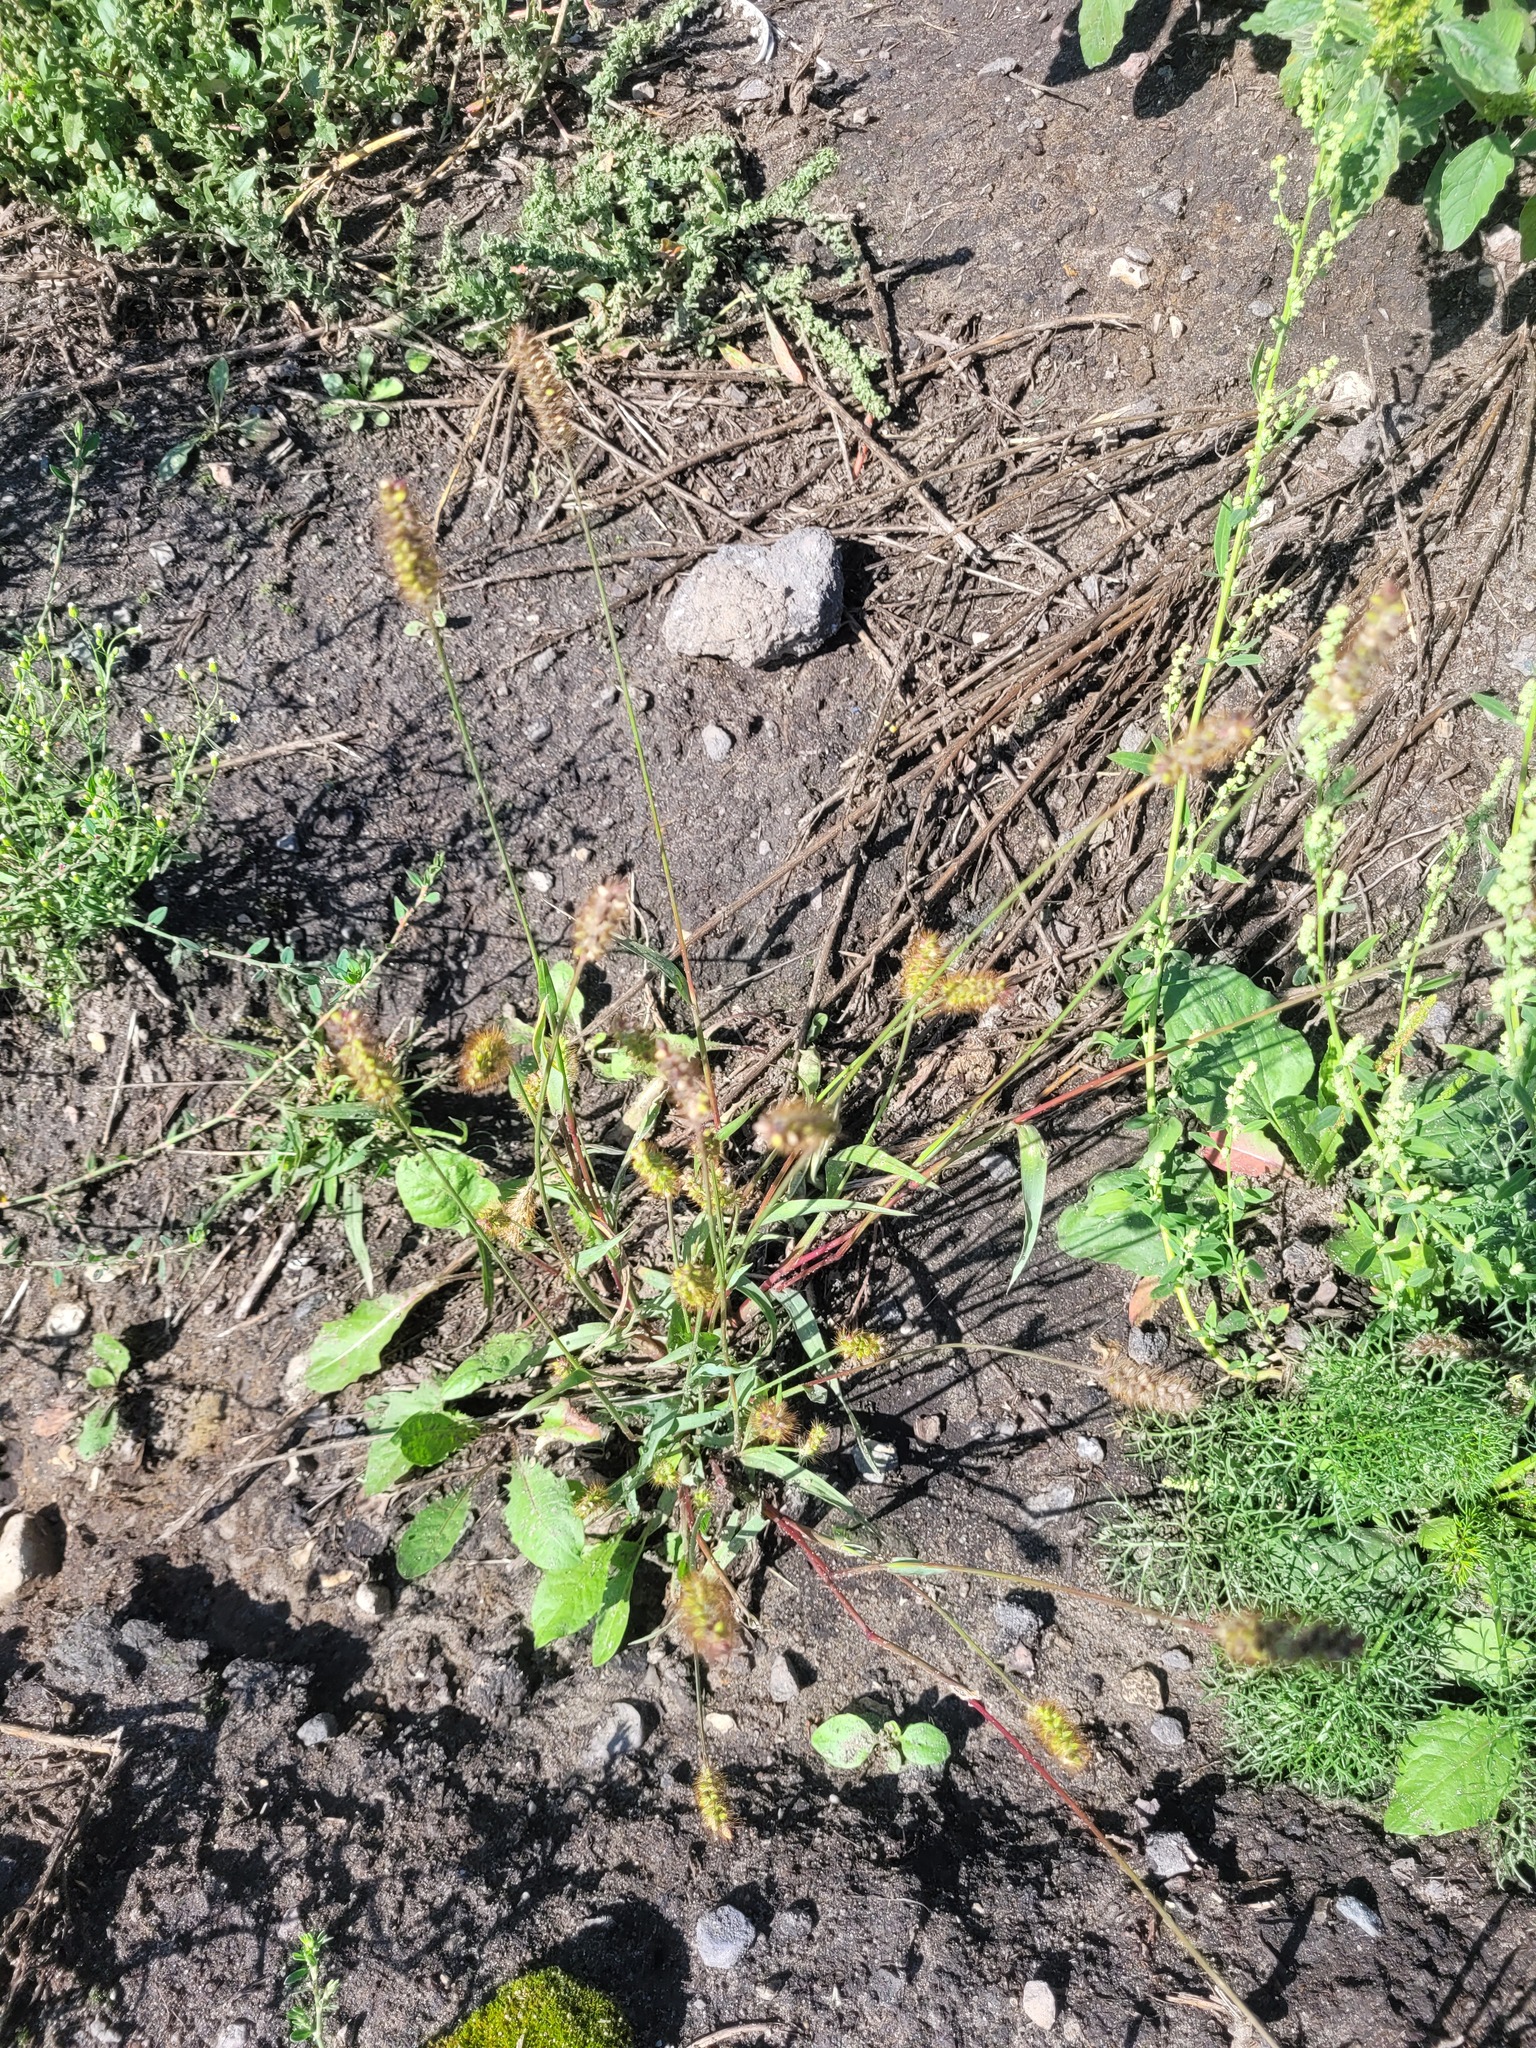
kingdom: Plantae
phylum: Tracheophyta
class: Liliopsida
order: Poales
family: Poaceae
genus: Setaria
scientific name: Setaria pumila
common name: Yellow bristle-grass
